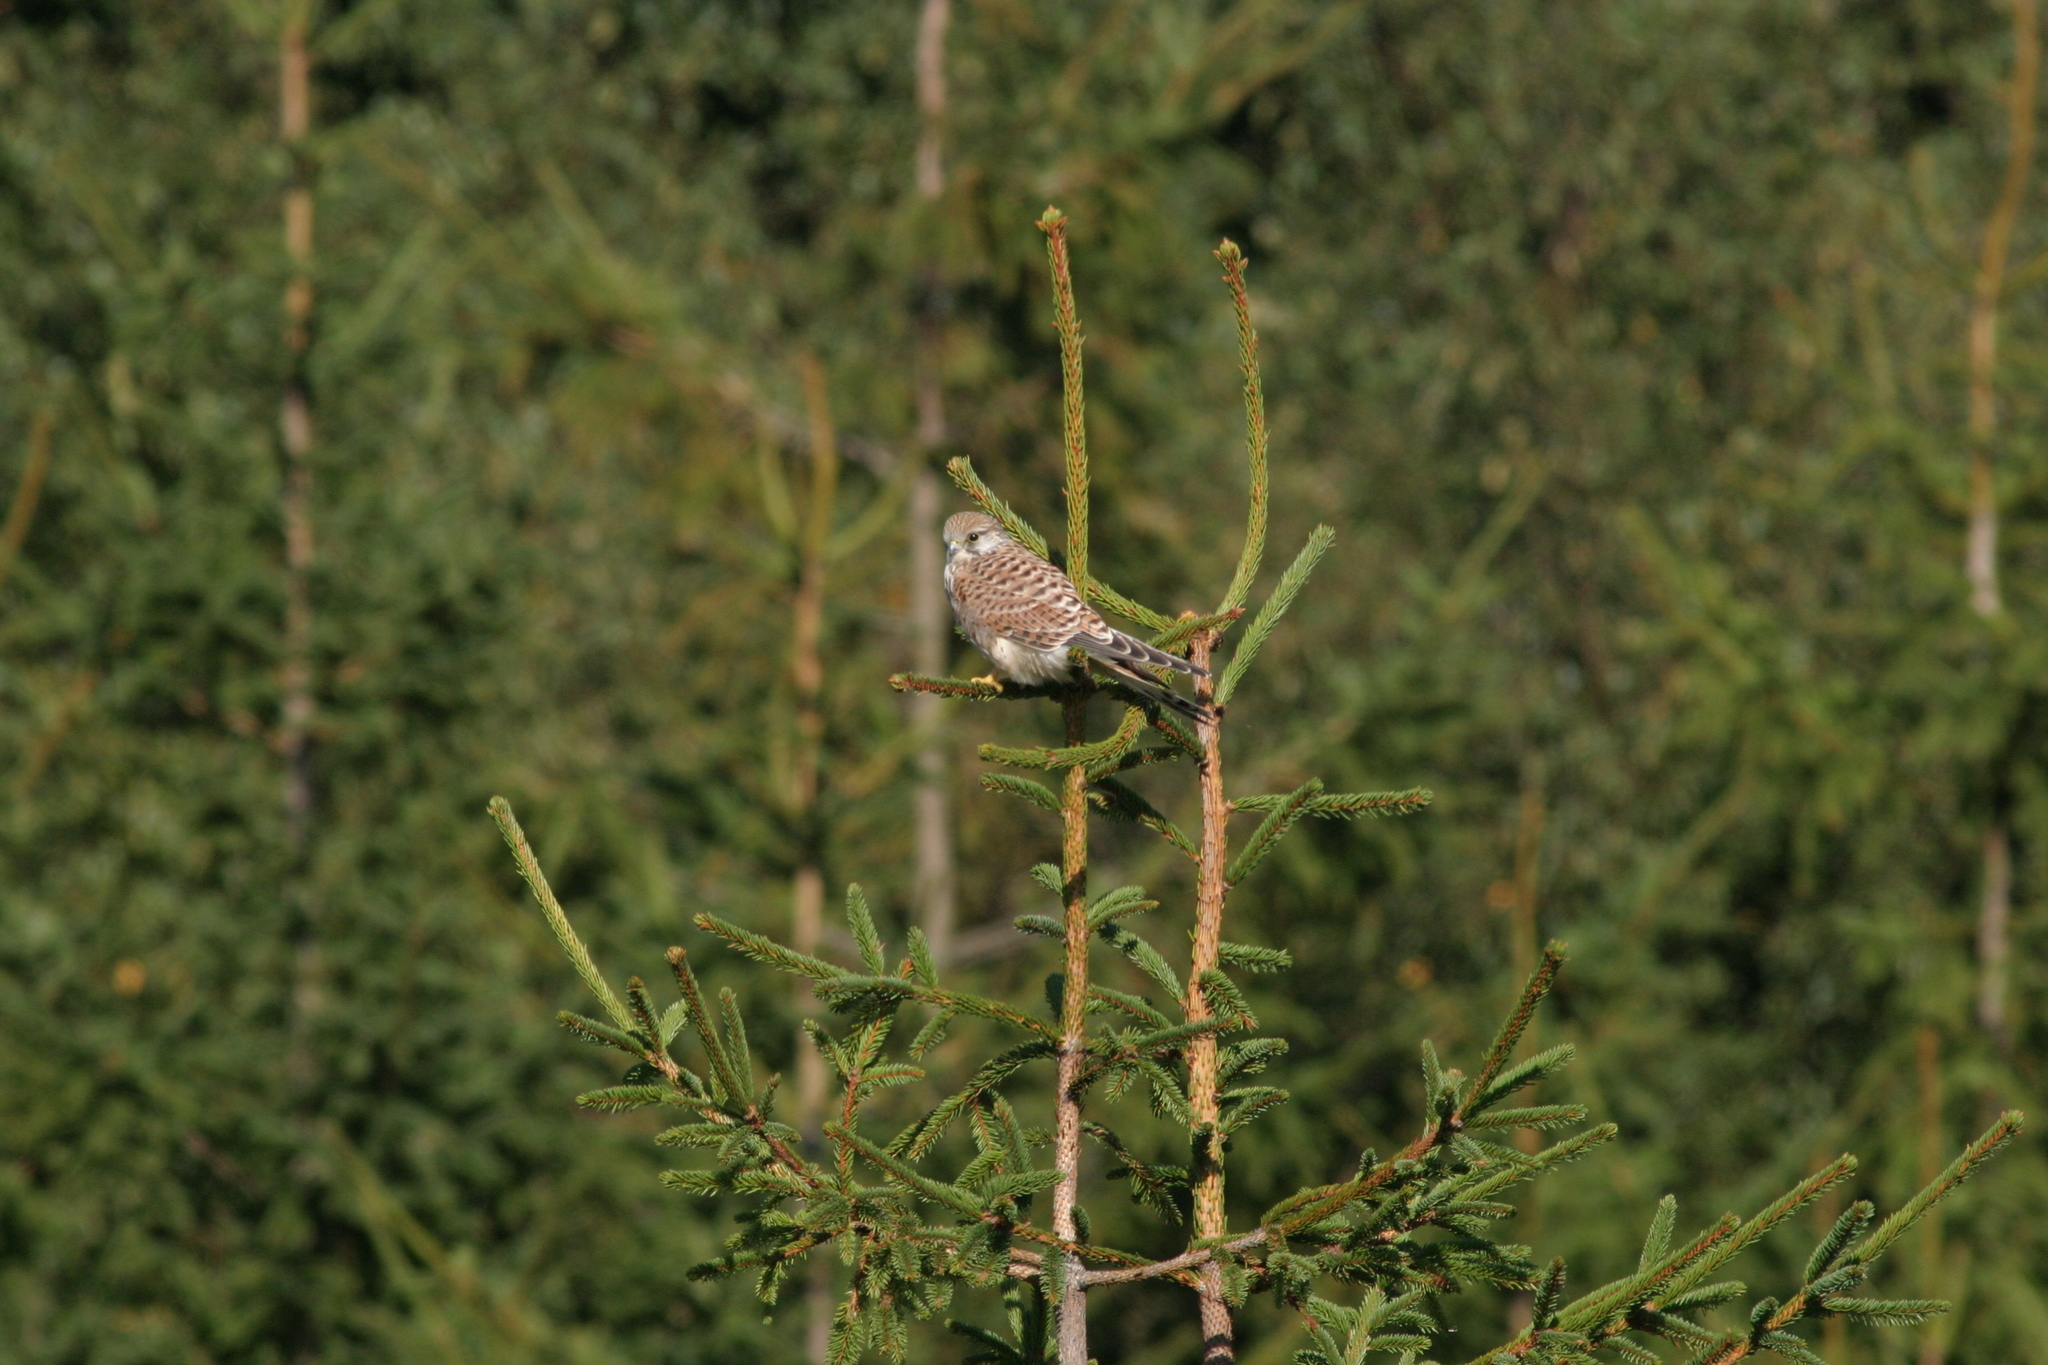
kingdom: Animalia
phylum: Chordata
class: Aves
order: Falconiformes
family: Falconidae
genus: Falco
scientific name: Falco tinnunculus
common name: Common kestrel
